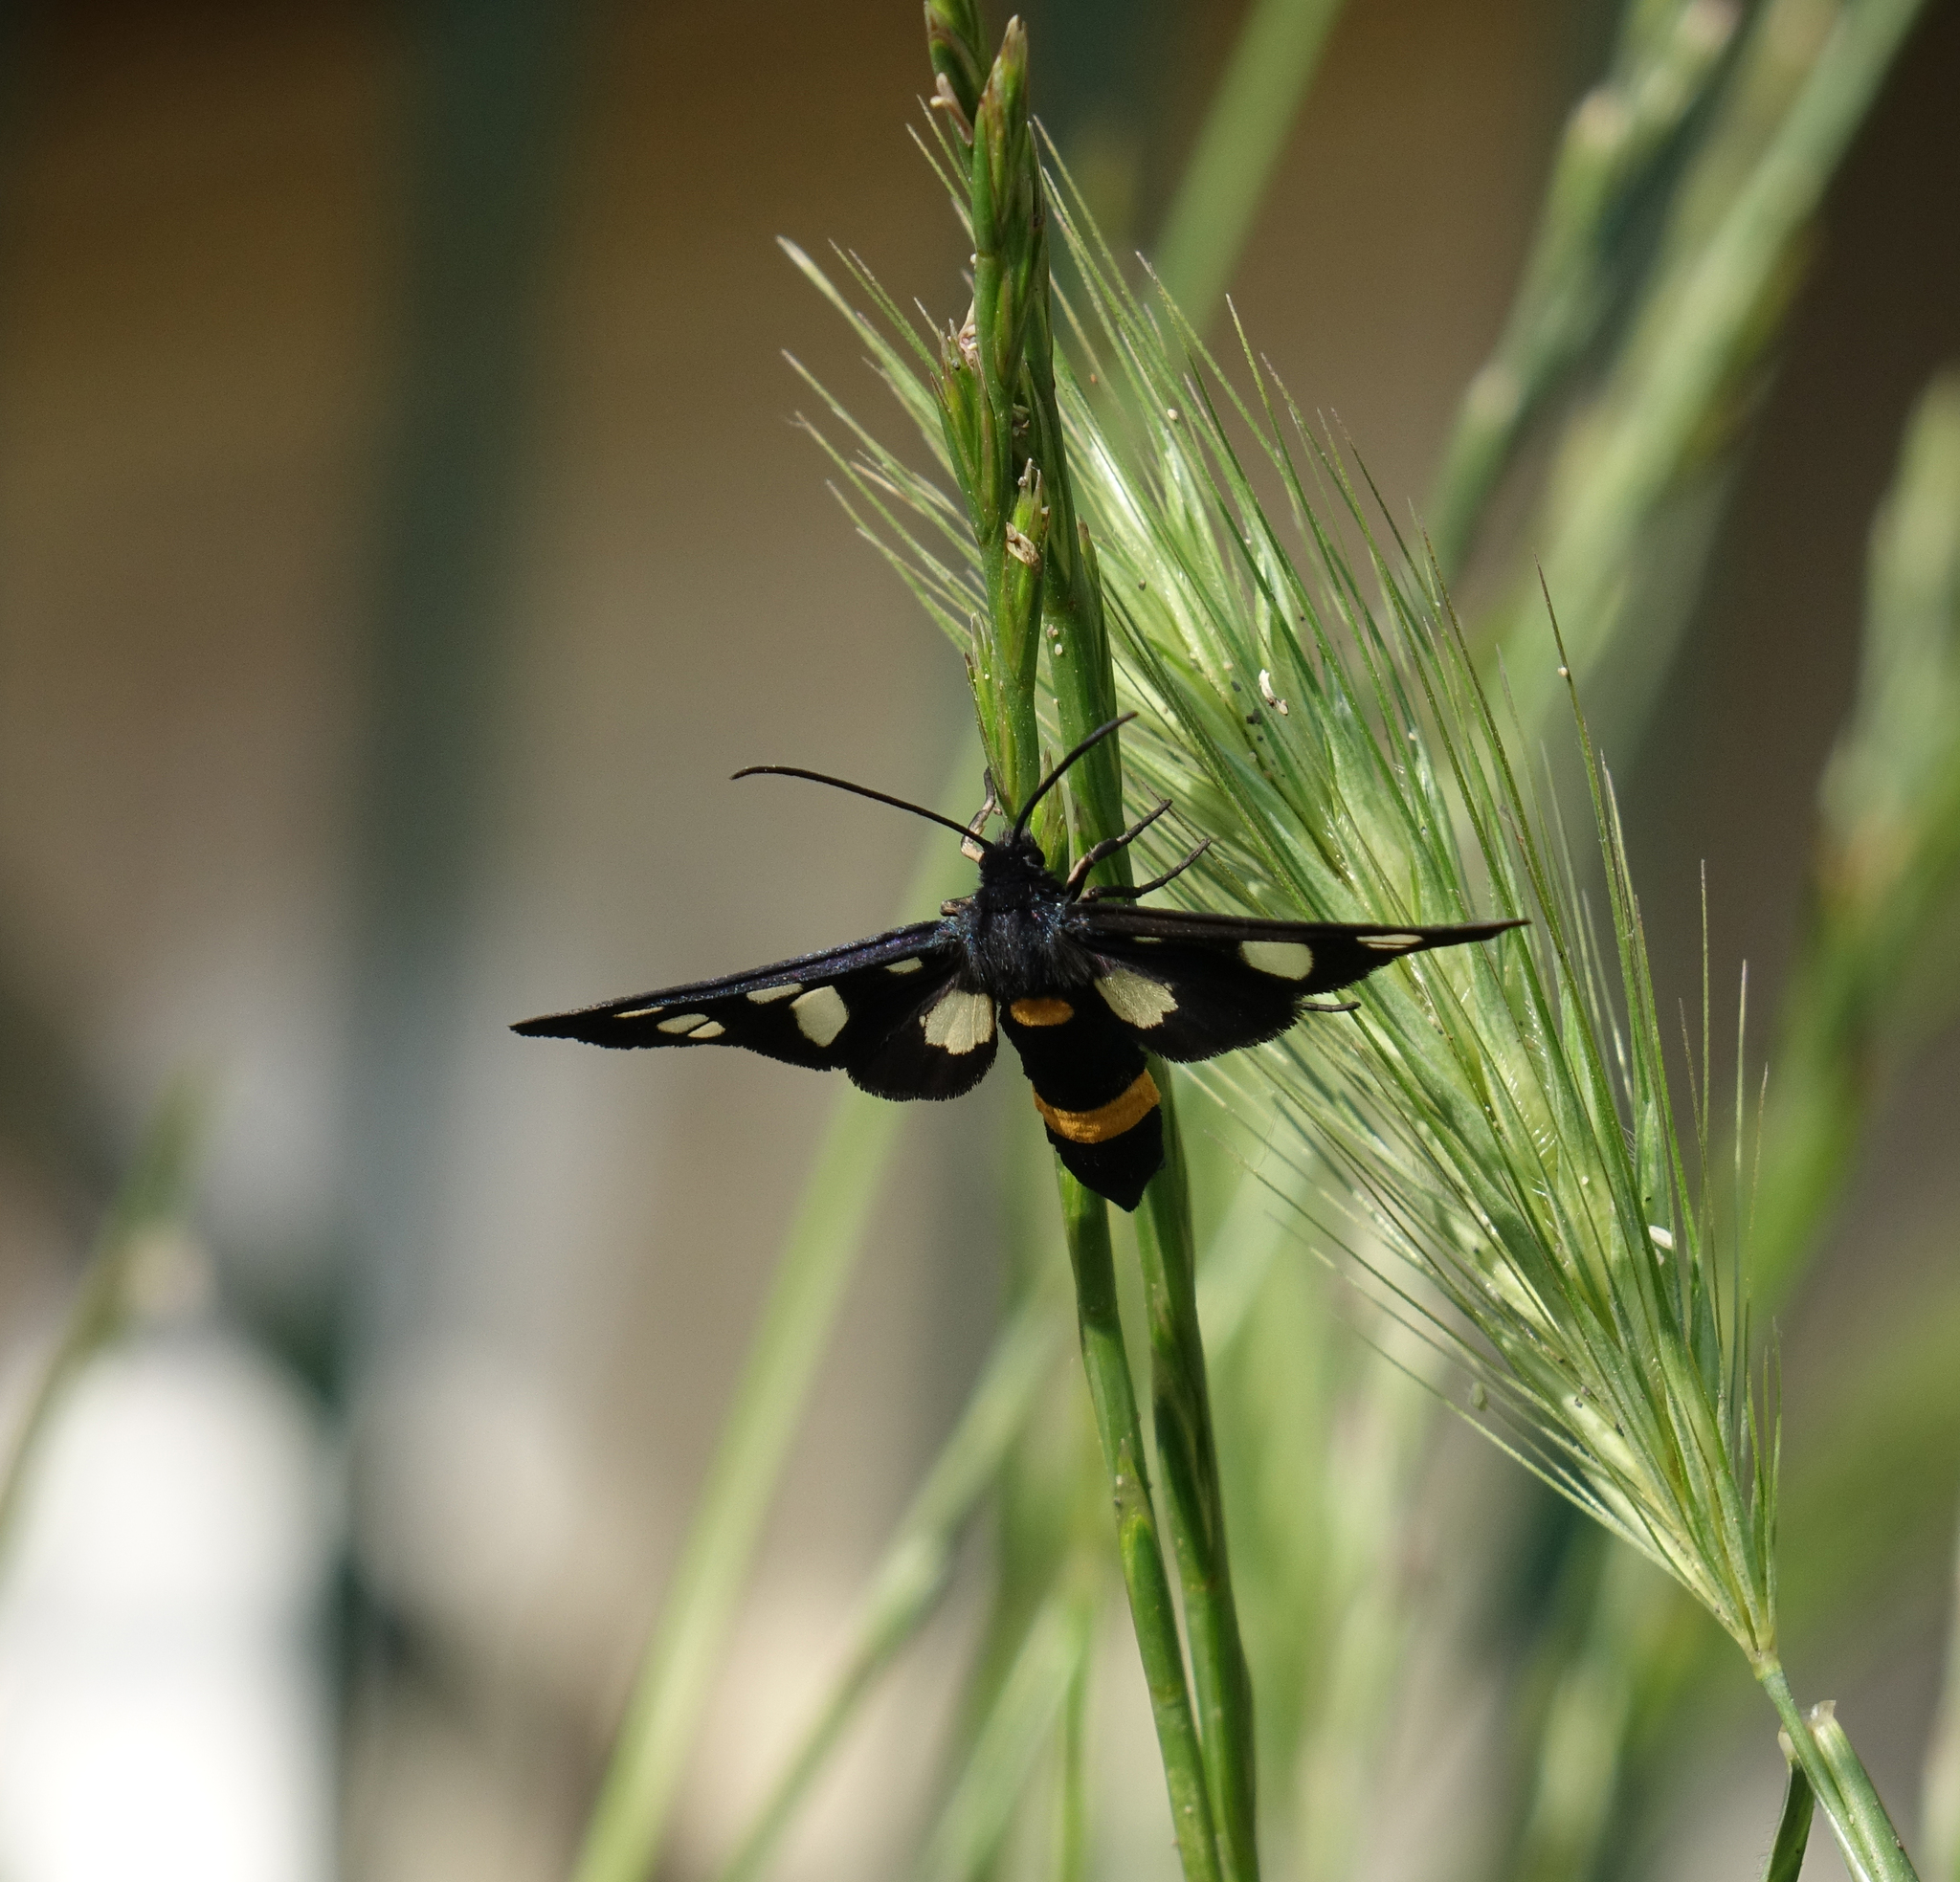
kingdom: Animalia
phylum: Arthropoda
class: Insecta
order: Lepidoptera
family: Erebidae
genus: Amata
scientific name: Amata nigricornis
